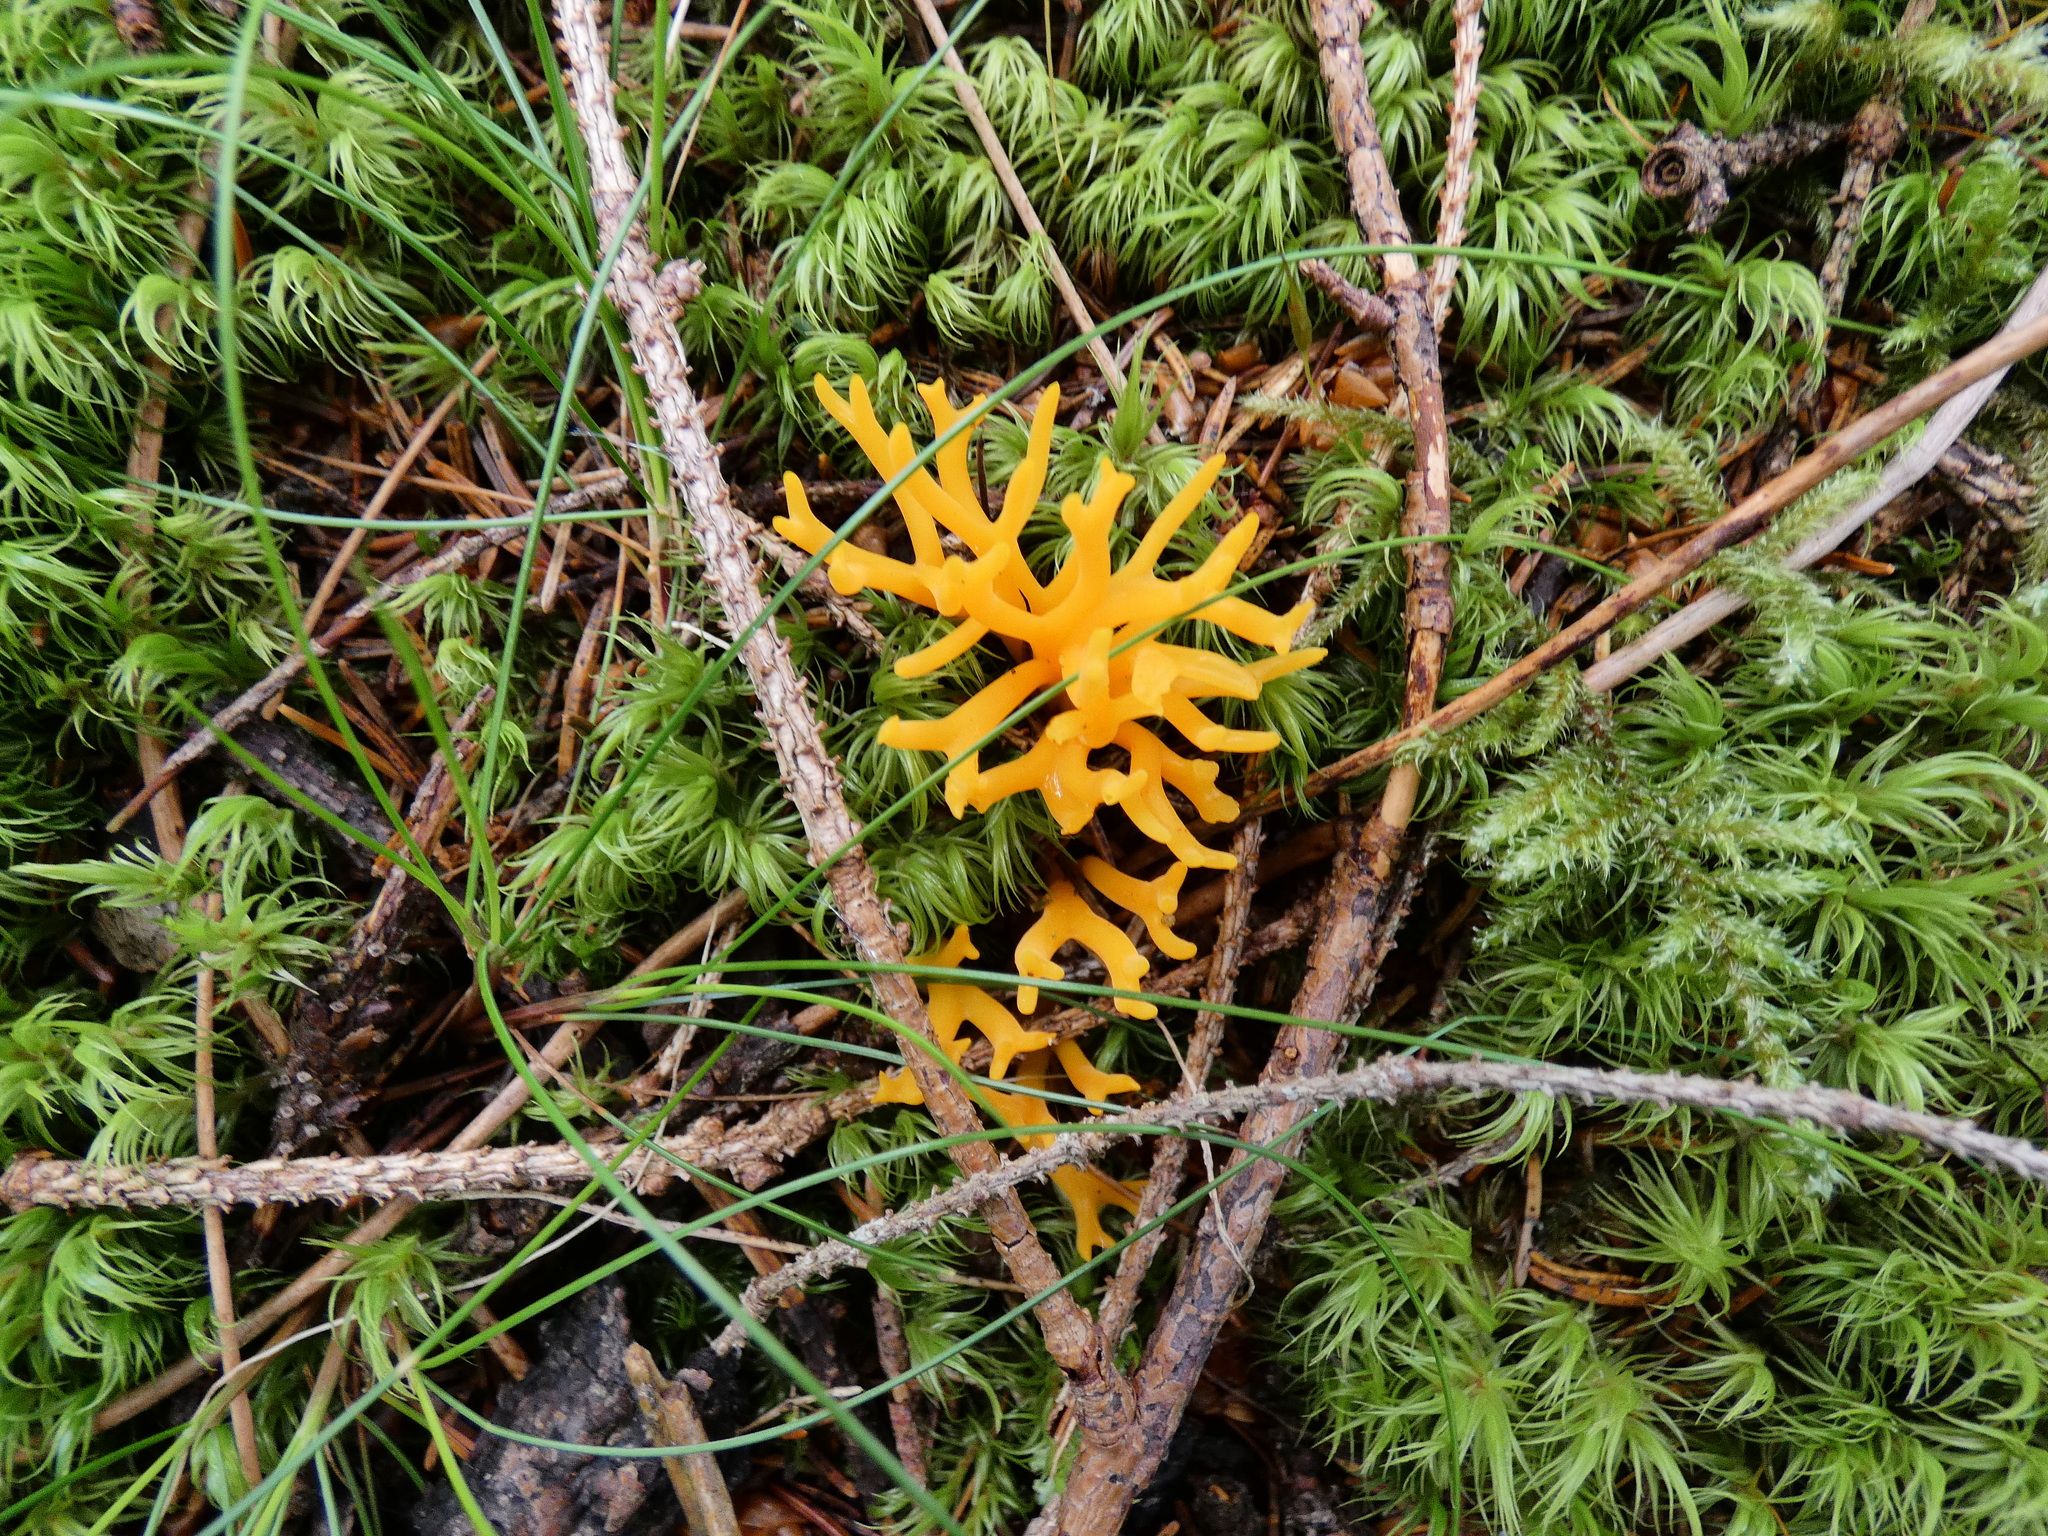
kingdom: Fungi
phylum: Basidiomycota
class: Dacrymycetes
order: Dacrymycetales
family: Dacrymycetaceae
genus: Calocera
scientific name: Calocera viscosa
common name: Yellow stagshorn
